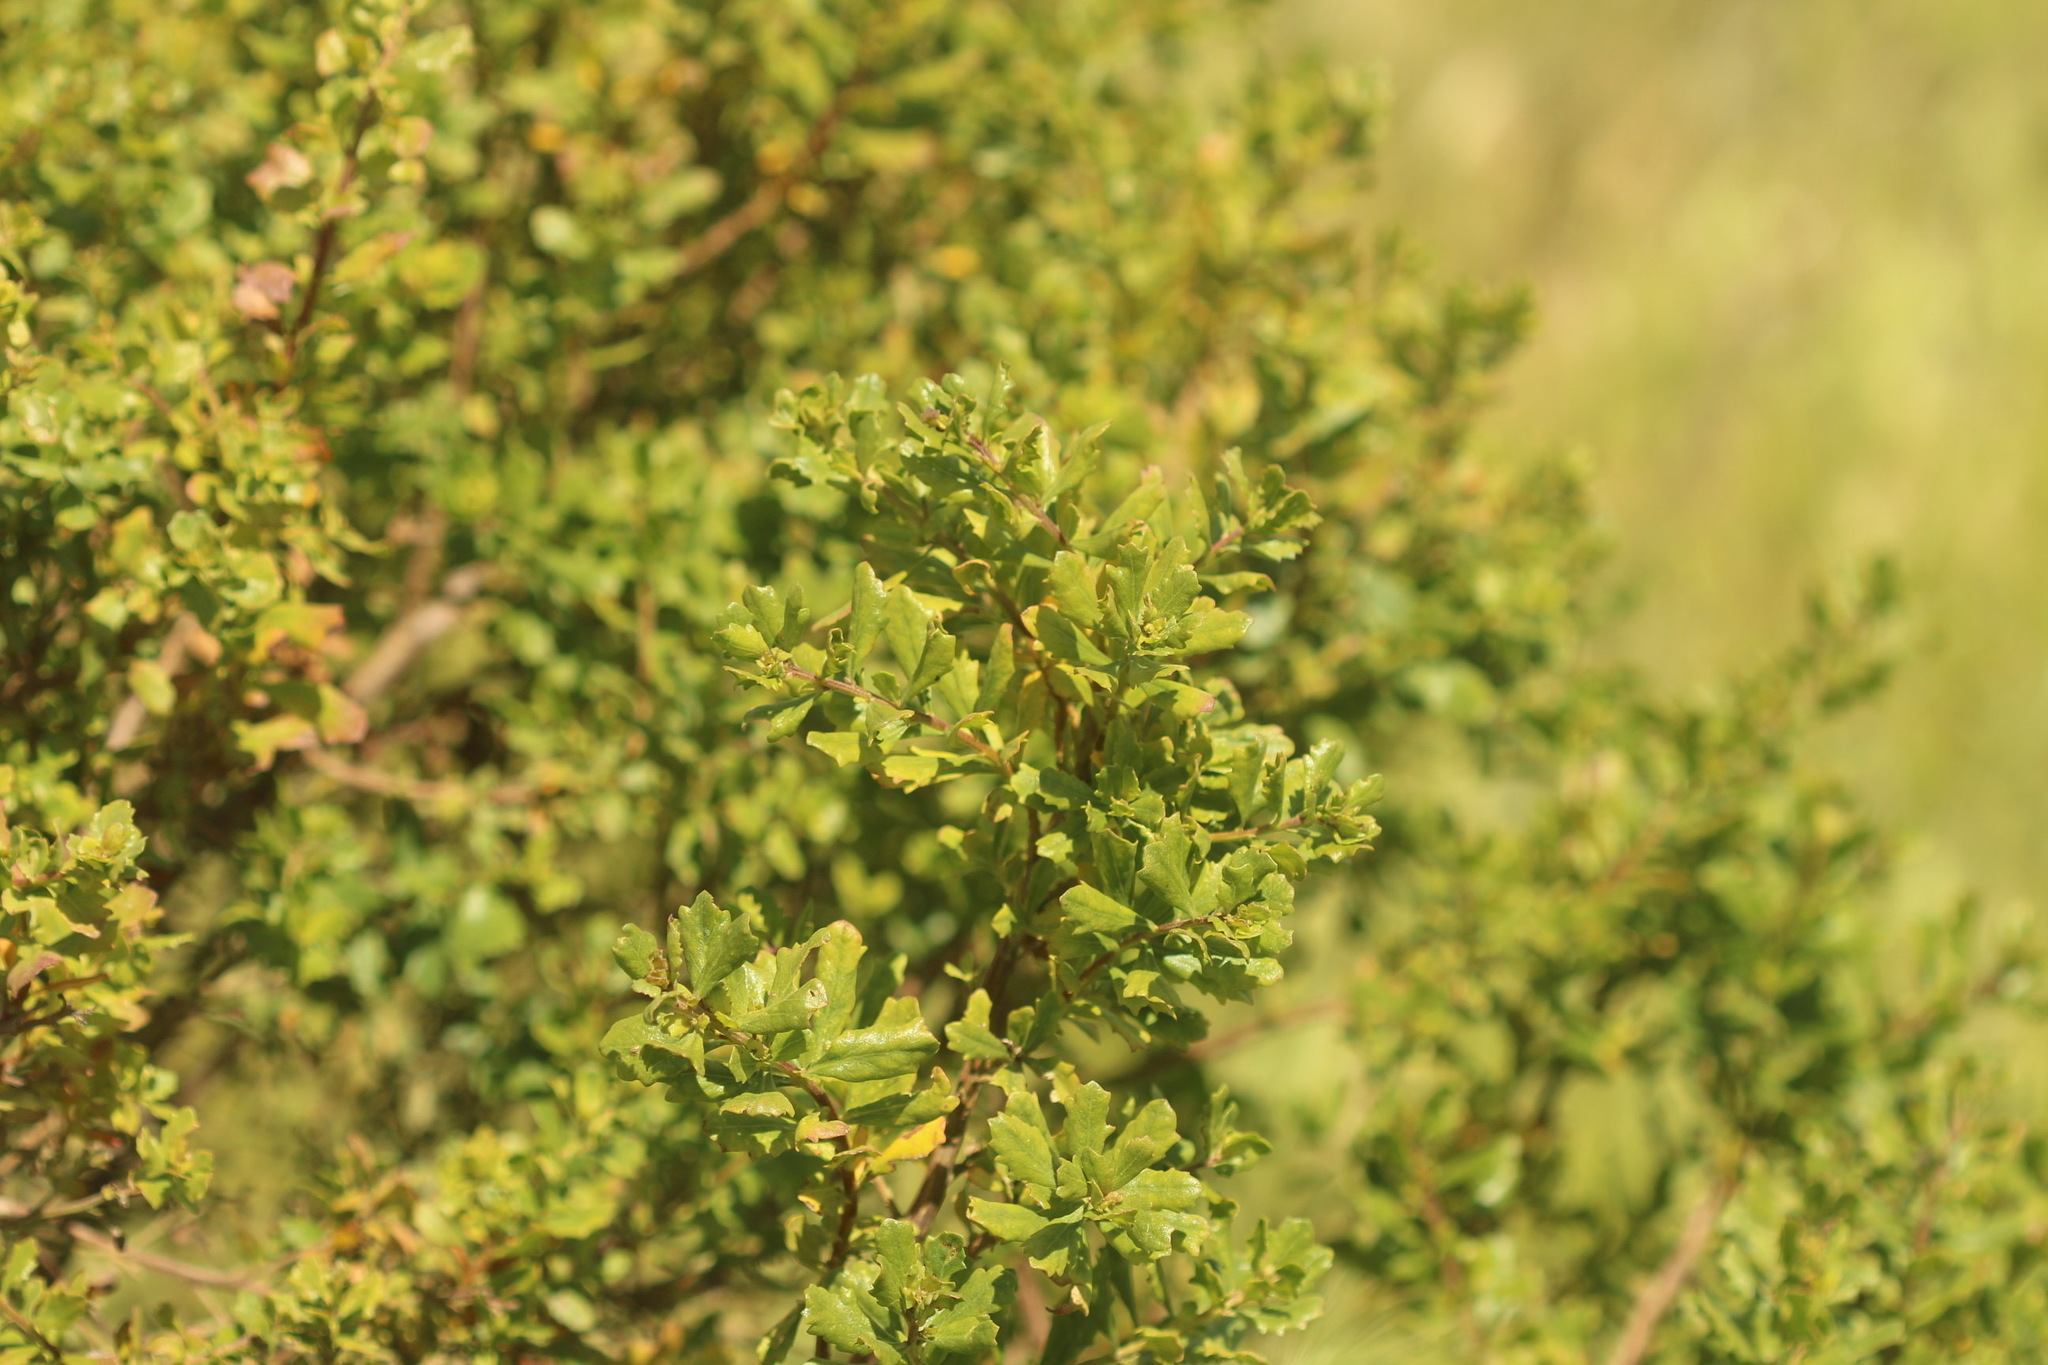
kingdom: Plantae
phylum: Tracheophyta
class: Magnoliopsida
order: Asterales
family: Asteraceae
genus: Baccharis
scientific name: Baccharis pilularis
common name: Coyotebrush
